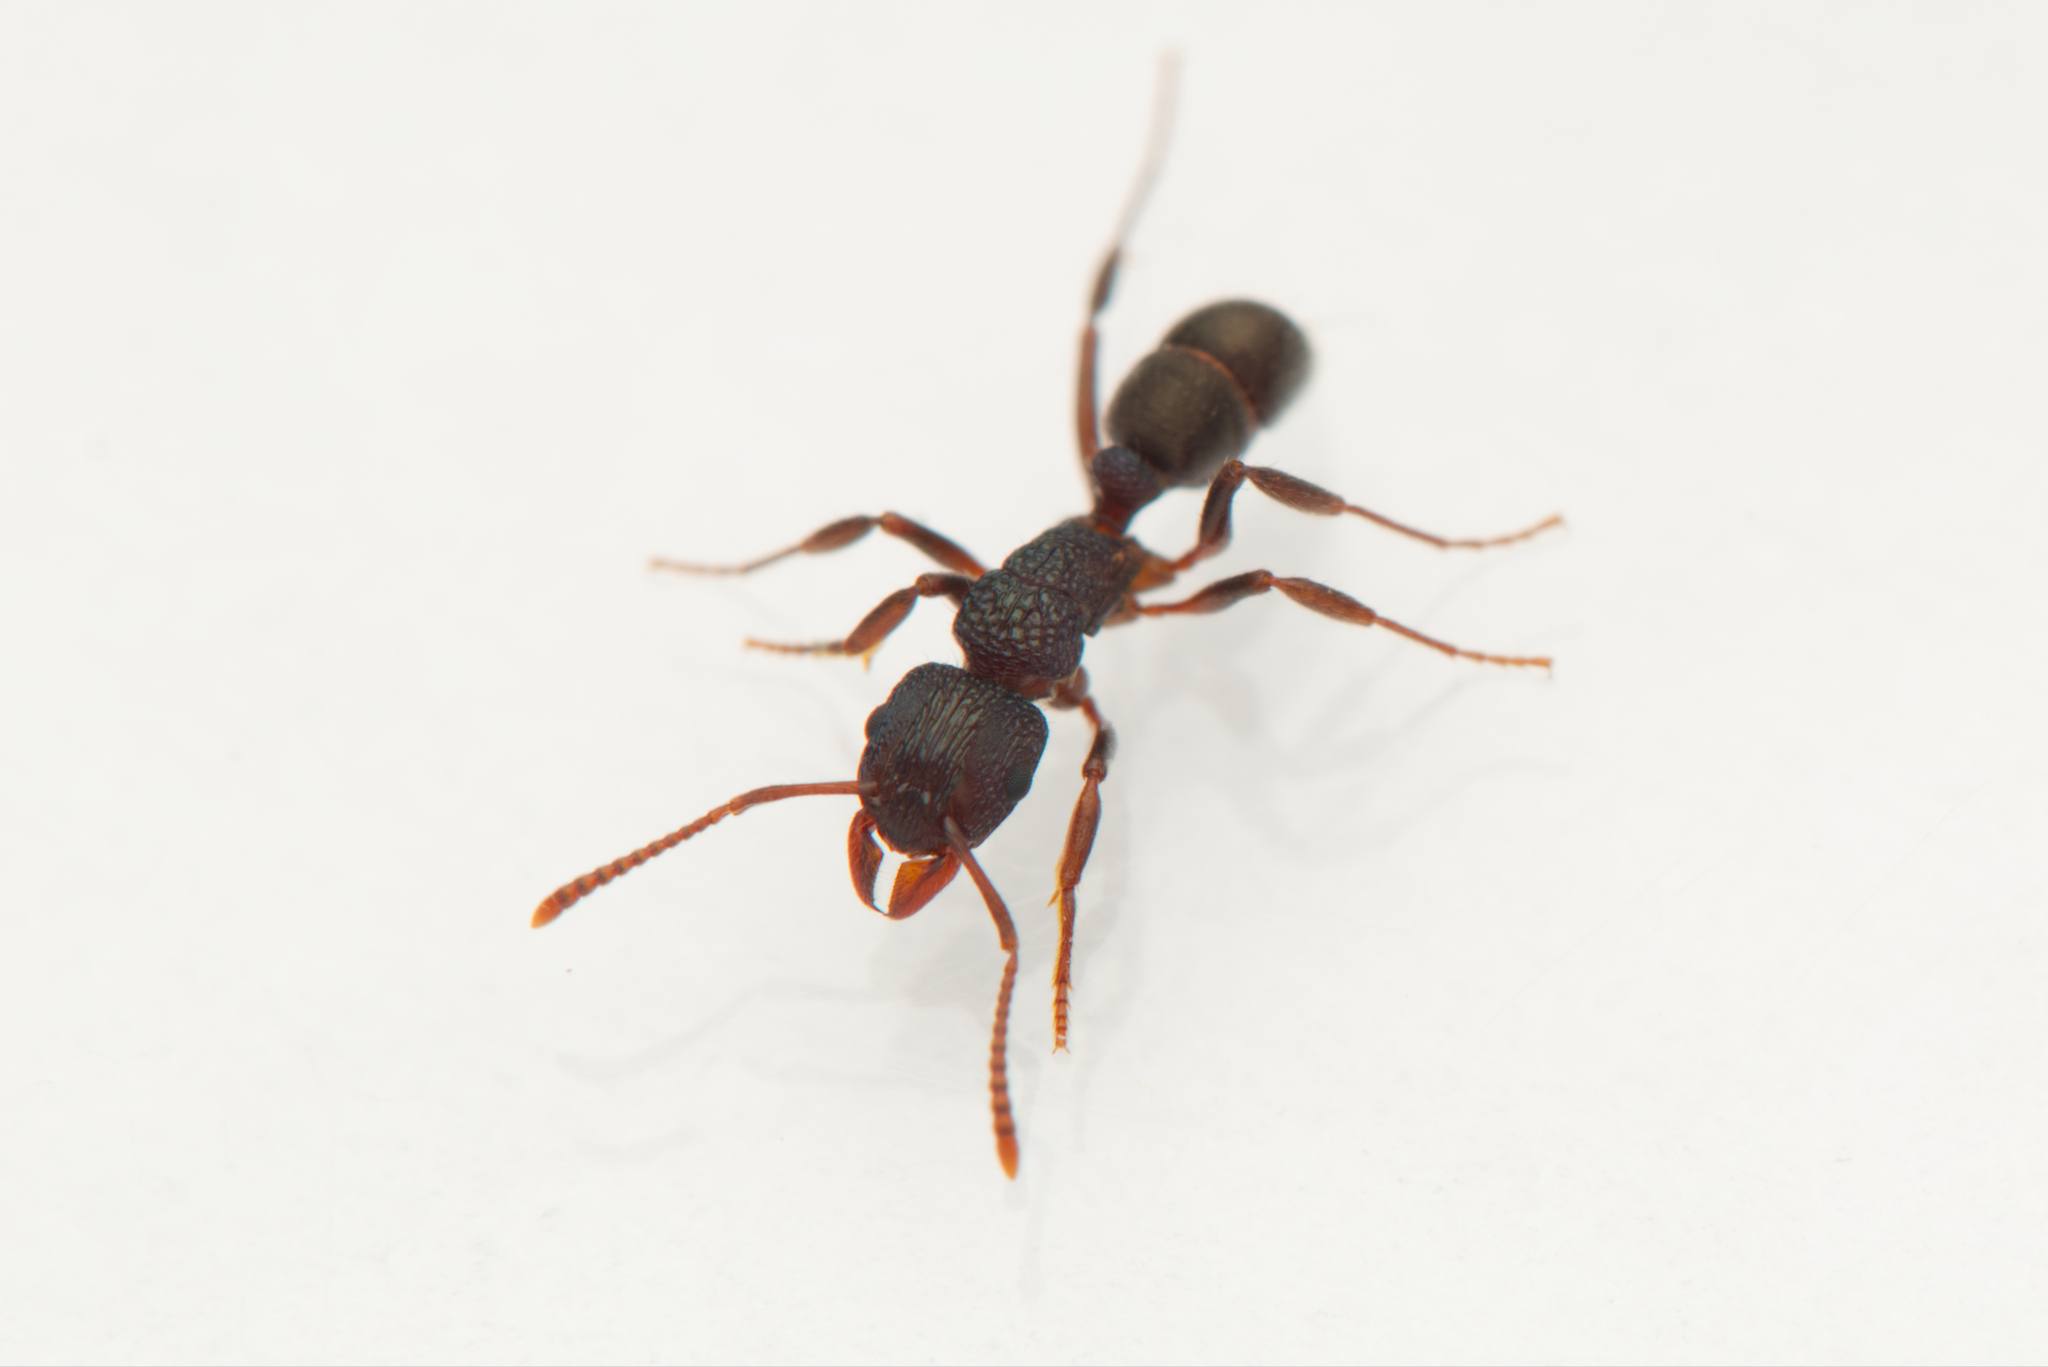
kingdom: Animalia
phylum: Arthropoda
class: Insecta
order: Hymenoptera
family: Formicidae
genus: Rhytidoponera
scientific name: Rhytidoponera victoriae
